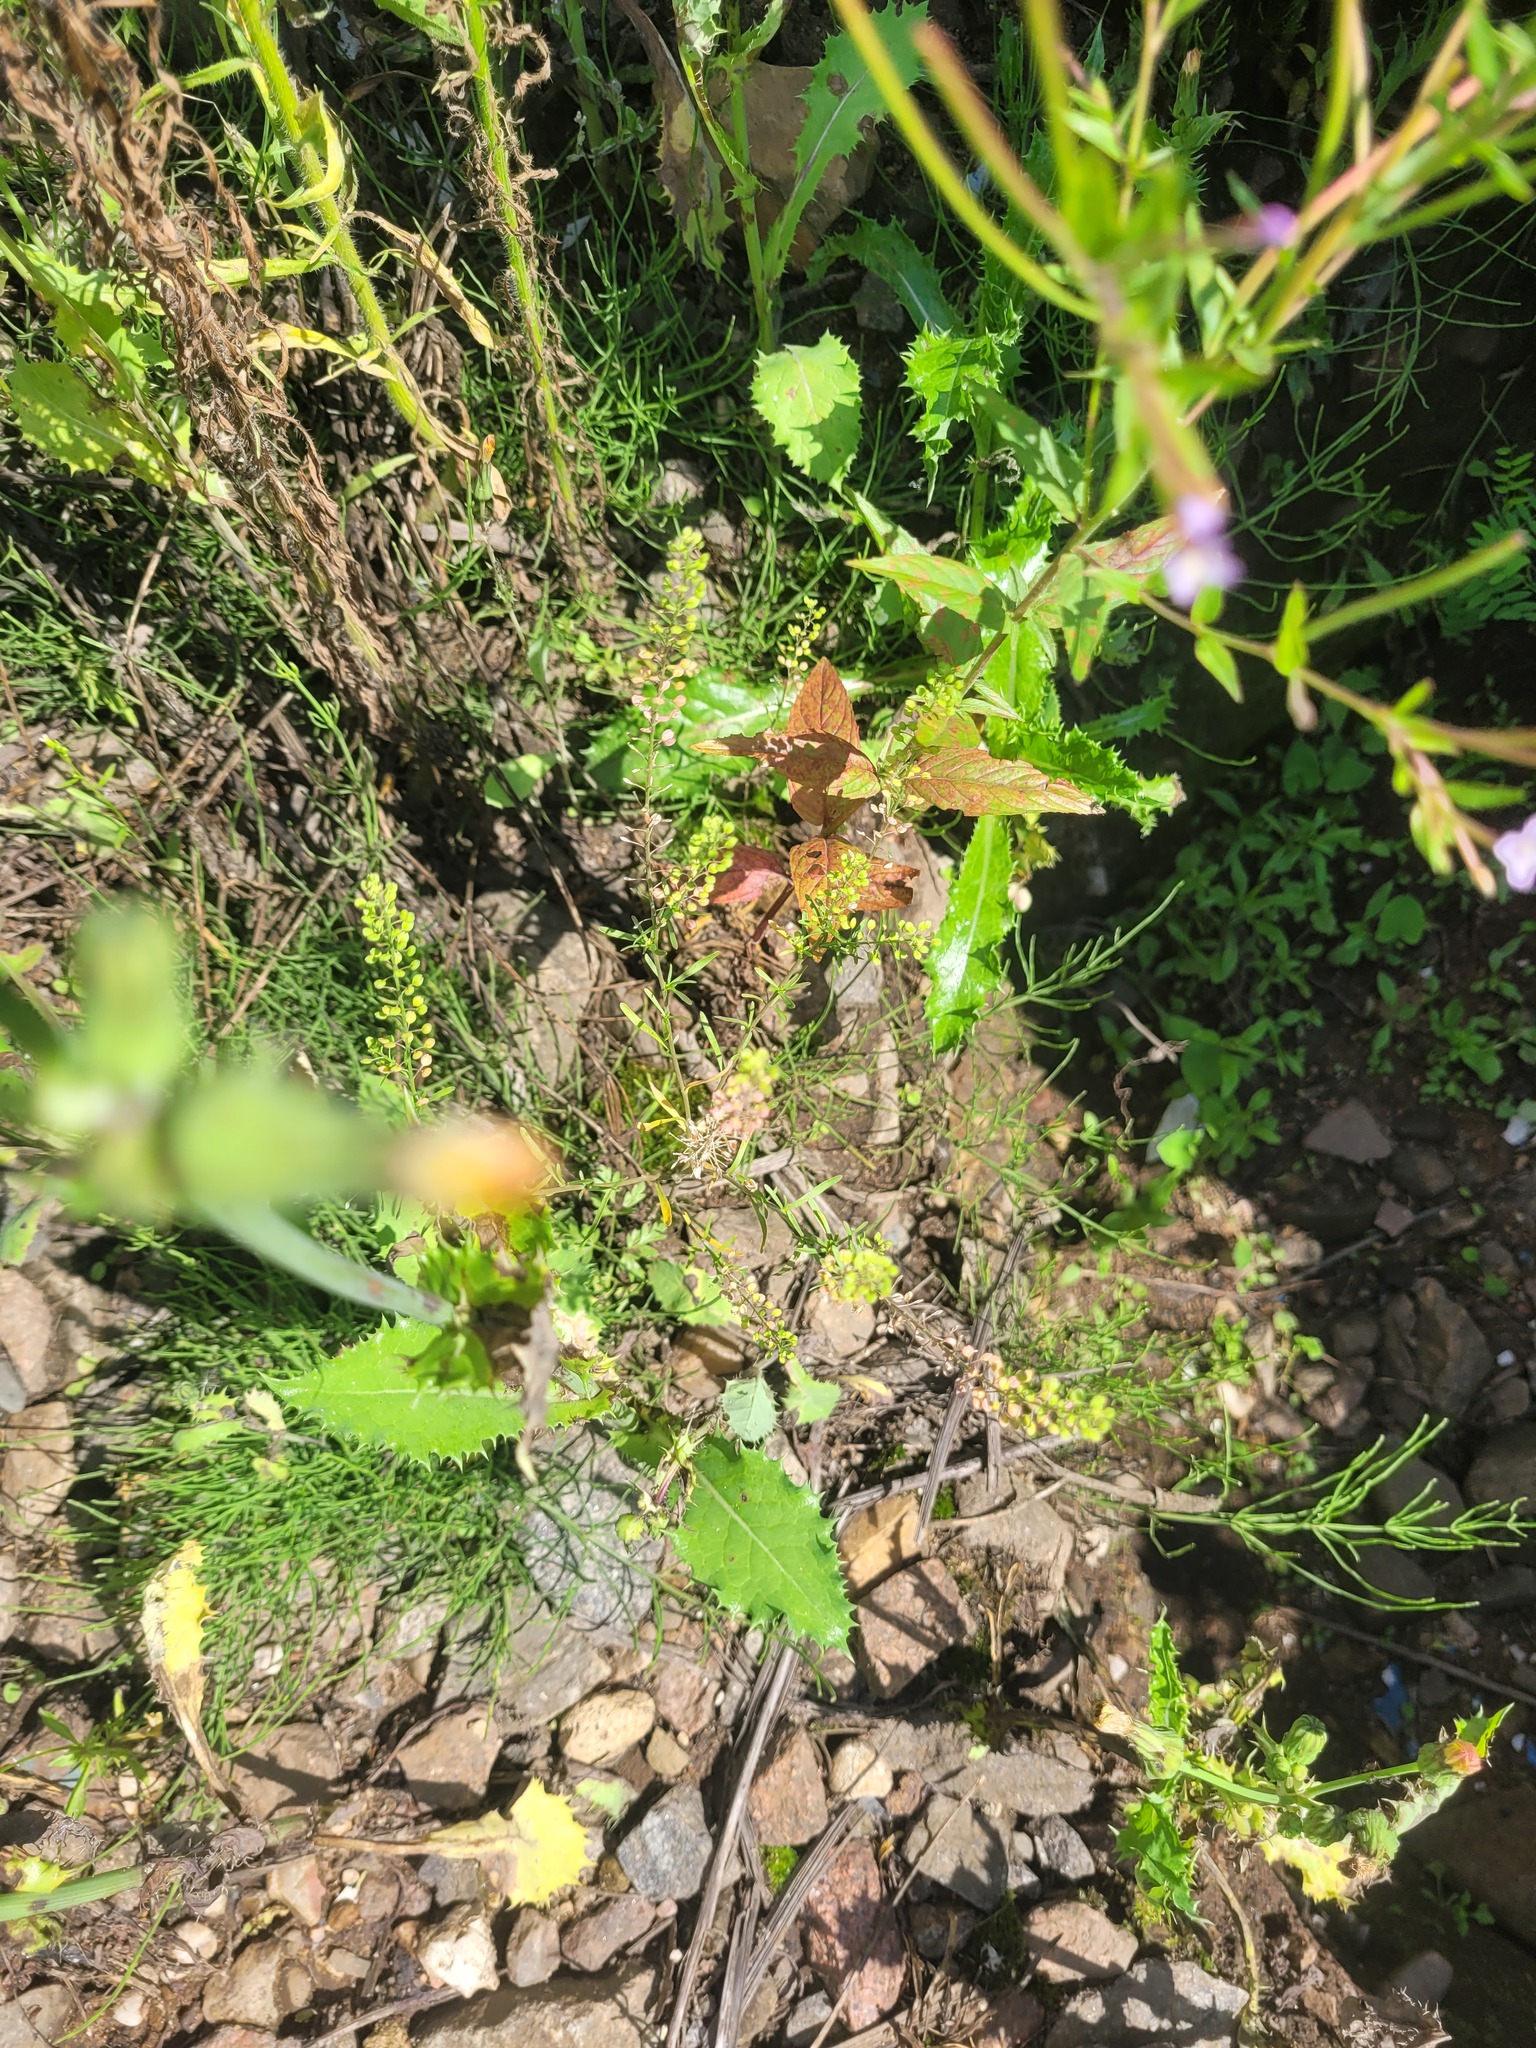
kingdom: Plantae
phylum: Tracheophyta
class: Magnoliopsida
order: Brassicales
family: Brassicaceae
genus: Lepidium
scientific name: Lepidium ruderale
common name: Narrow-leaved pepperwort
